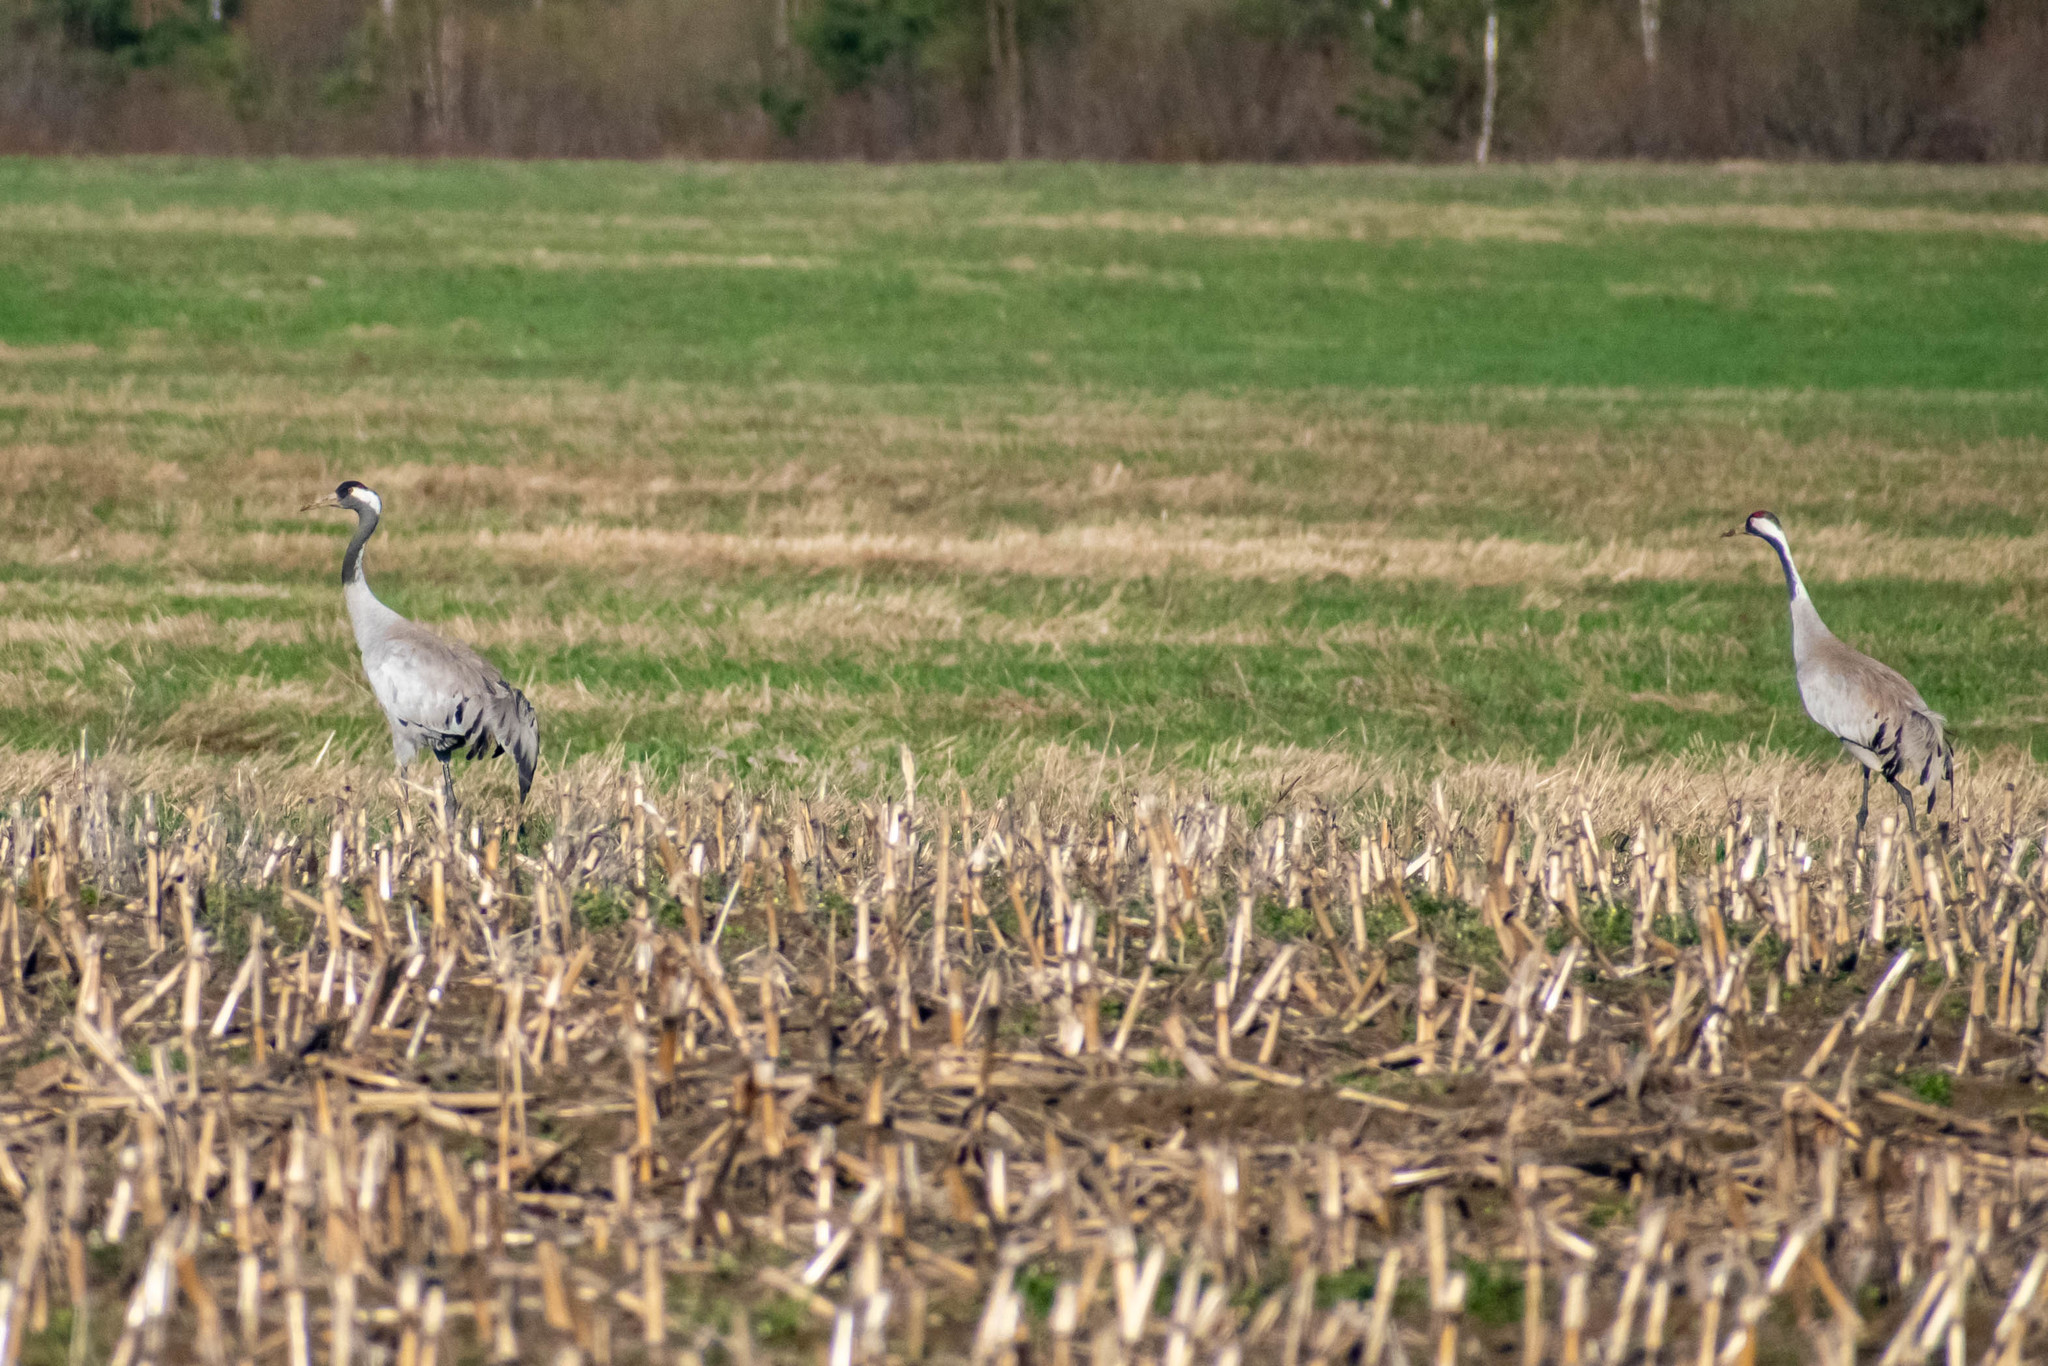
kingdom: Animalia
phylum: Chordata
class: Aves
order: Gruiformes
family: Gruidae
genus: Grus
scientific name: Grus grus
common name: Common crane
